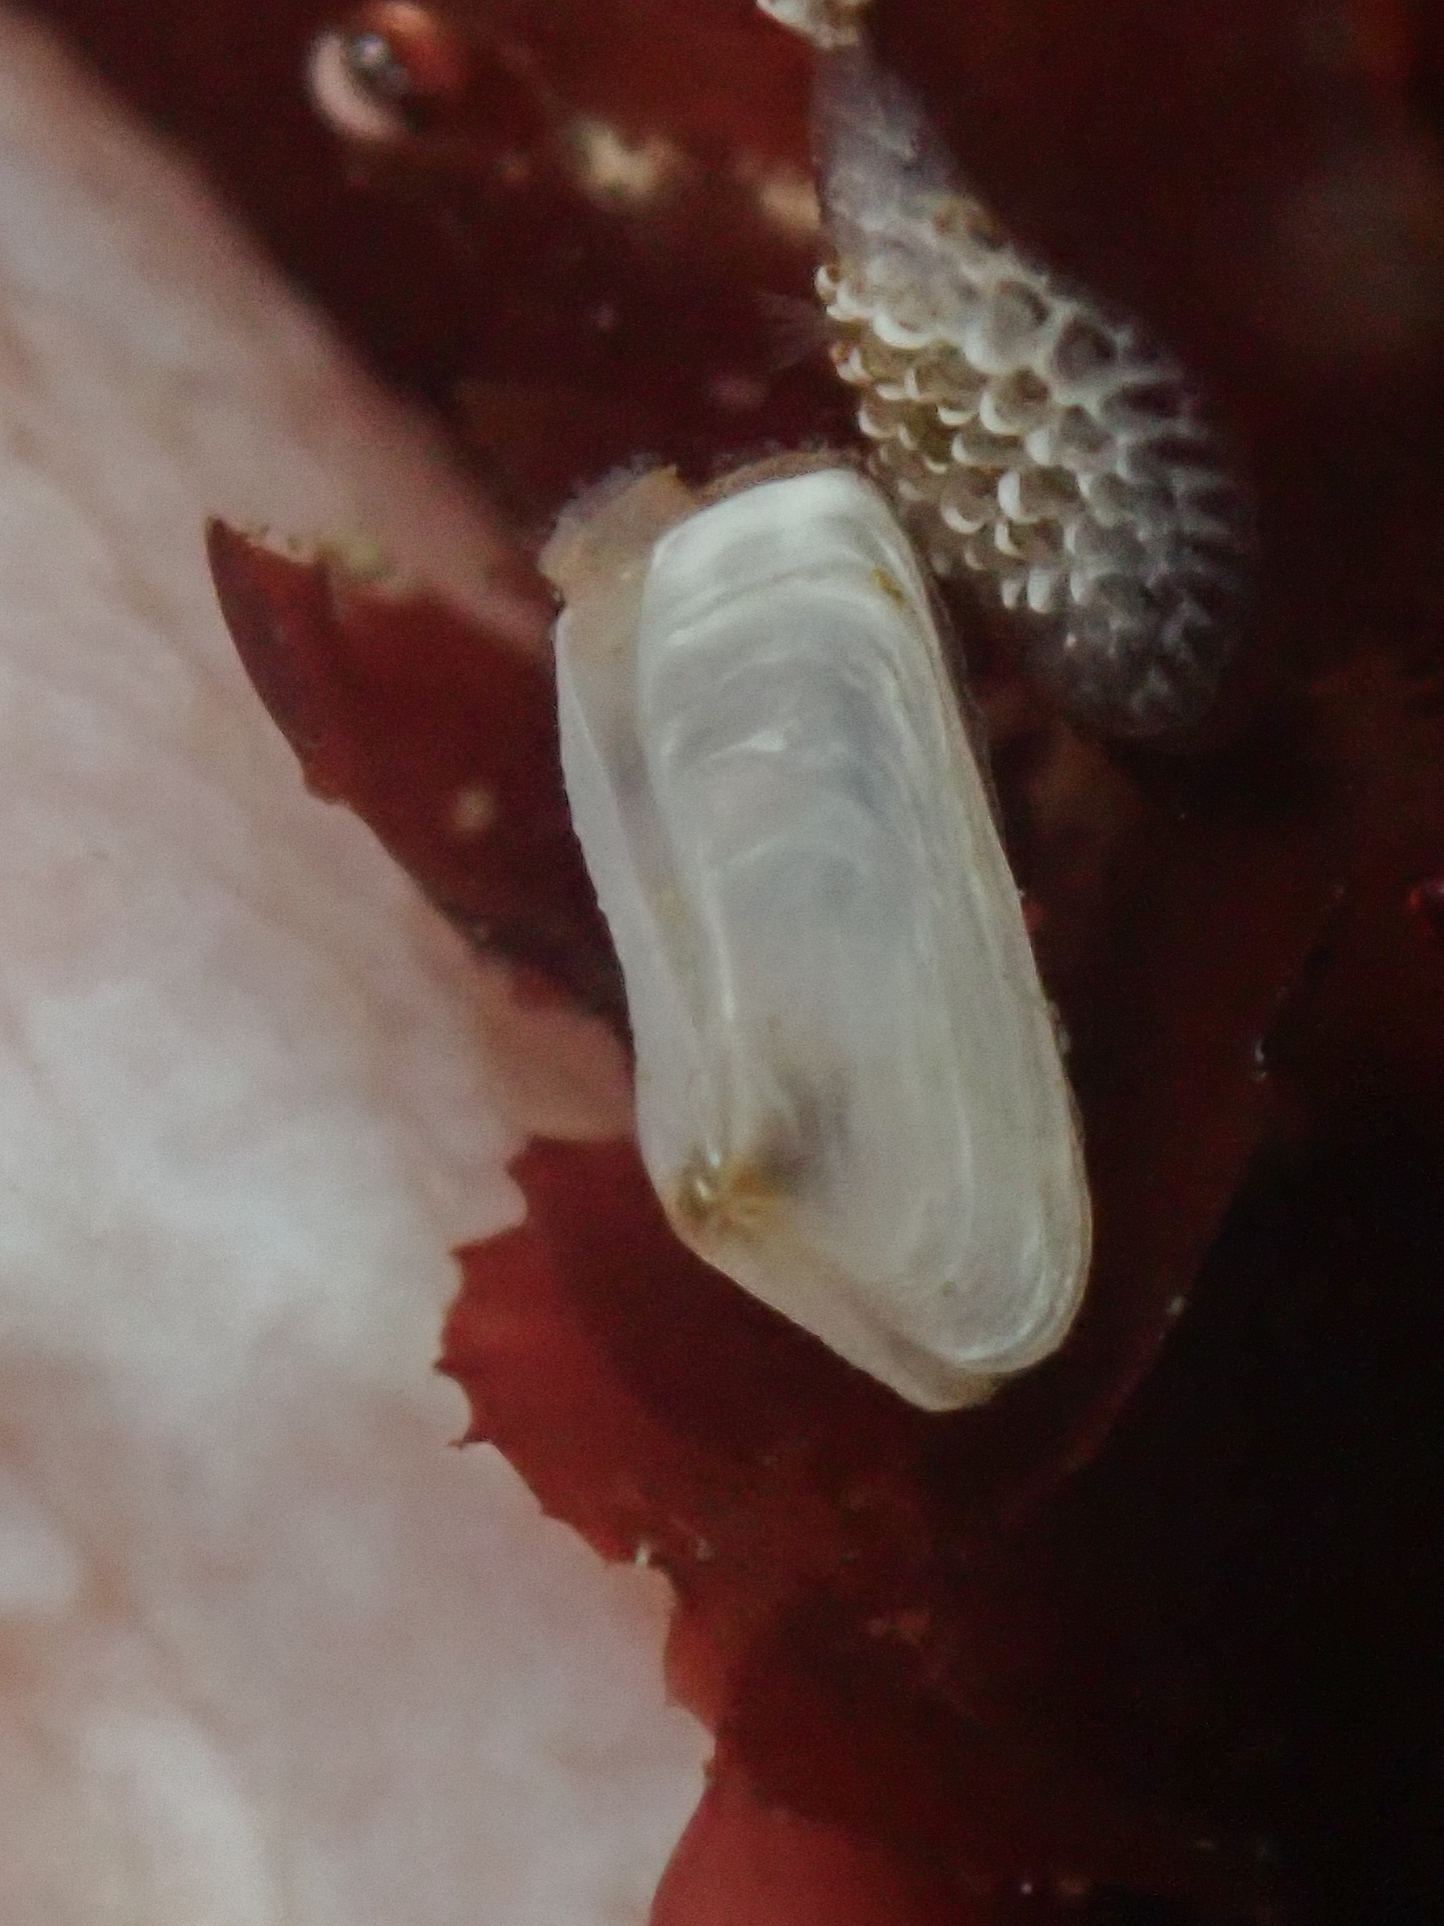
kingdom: Animalia
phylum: Mollusca
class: Bivalvia
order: Adapedonta
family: Hiatellidae
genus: Hiatella
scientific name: Hiatella arctica
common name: Arctic hiatella
